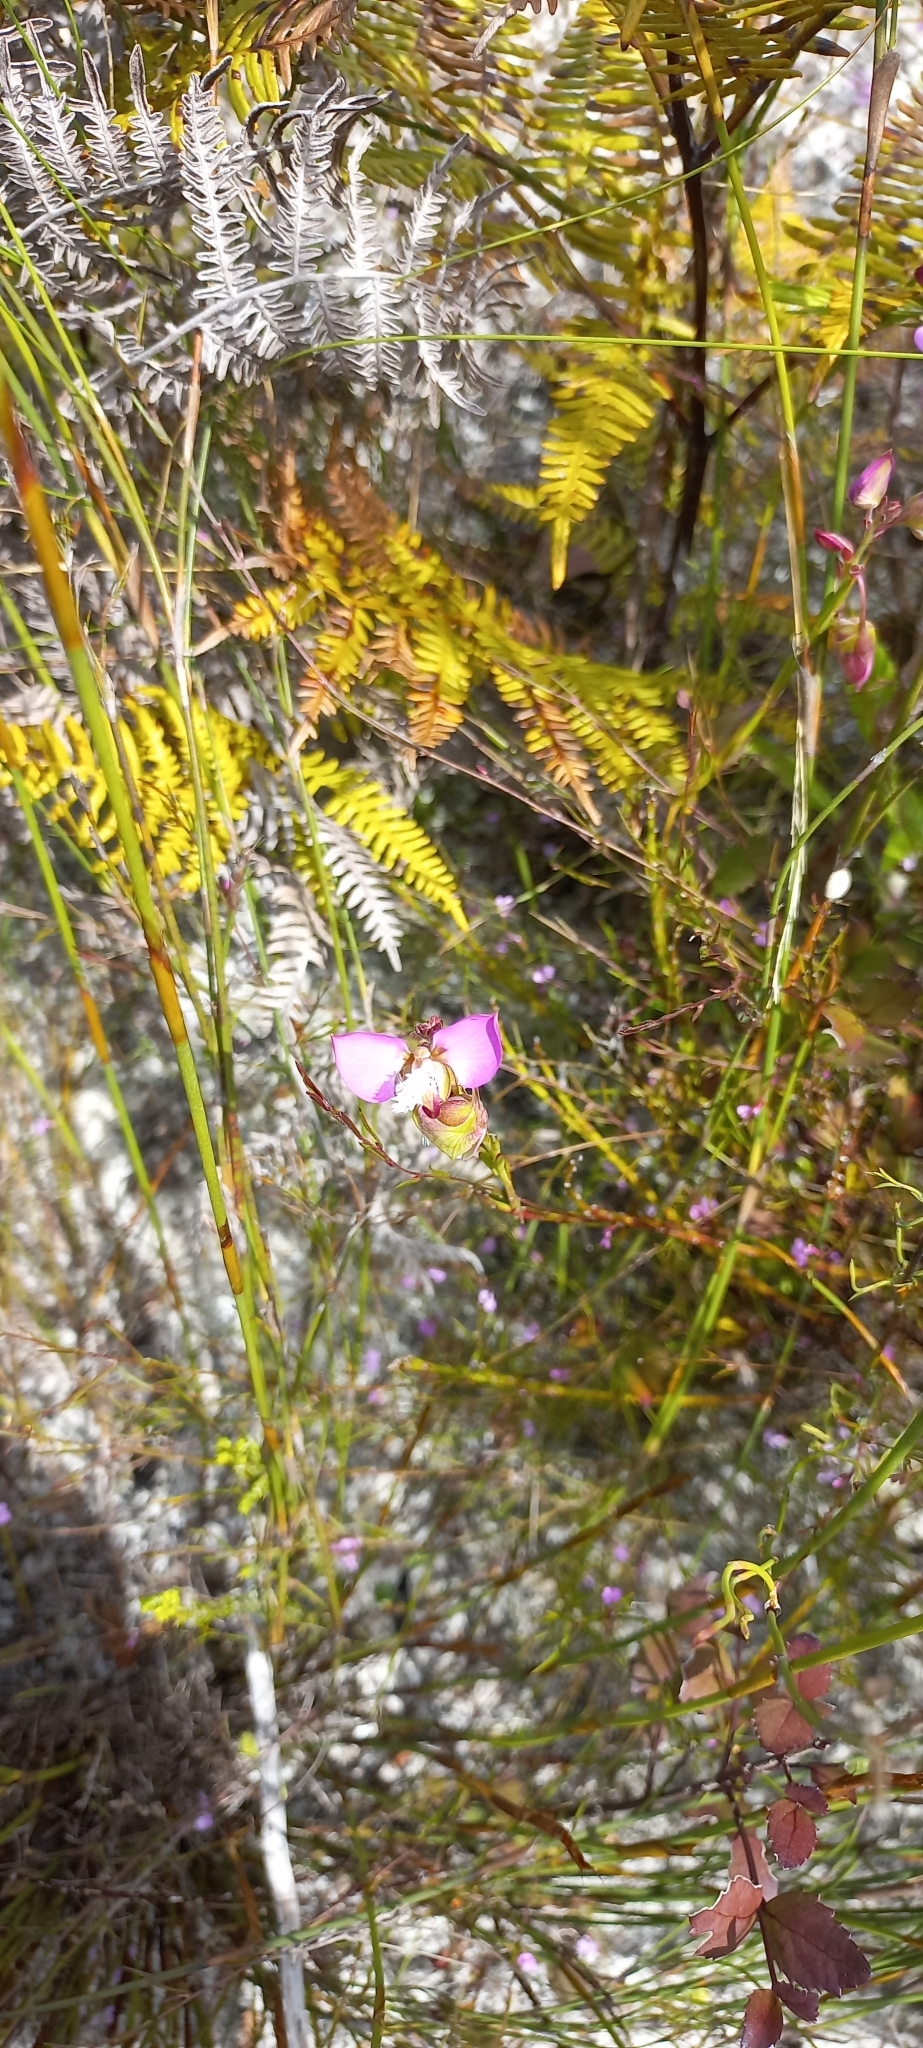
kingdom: Plantae
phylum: Tracheophyta
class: Magnoliopsida
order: Fabales
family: Polygalaceae
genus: Polygala
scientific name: Polygala bracteolata
